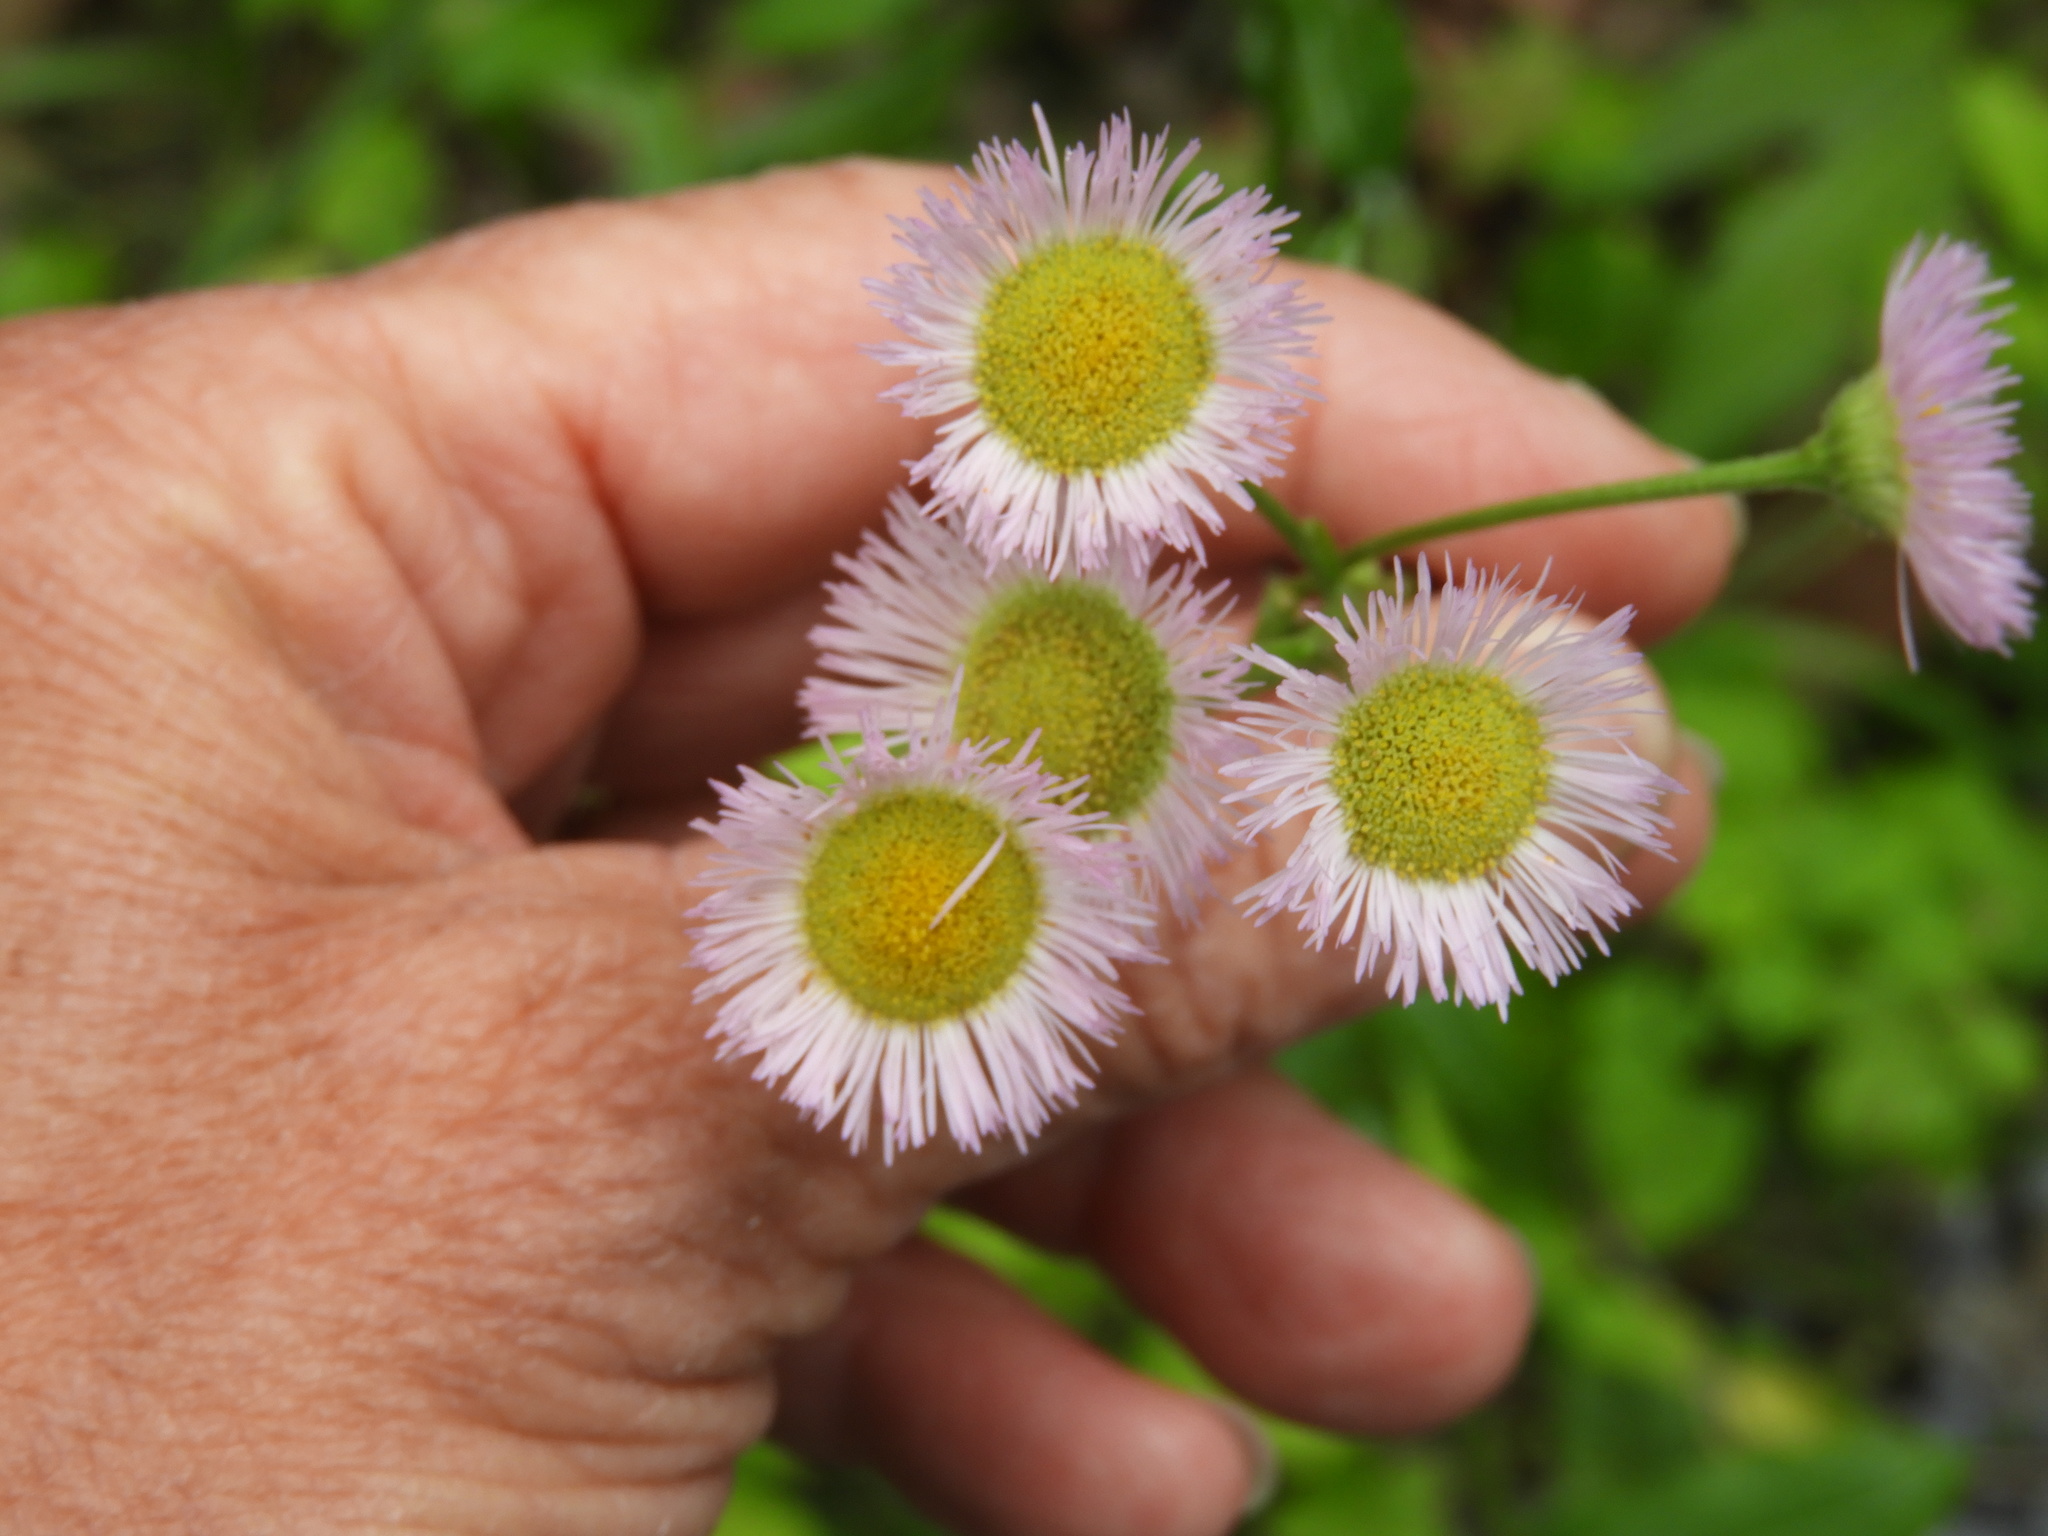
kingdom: Plantae
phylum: Tracheophyta
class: Magnoliopsida
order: Asterales
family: Asteraceae
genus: Erigeron
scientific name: Erigeron philadelphicus
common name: Robin's-plantain
